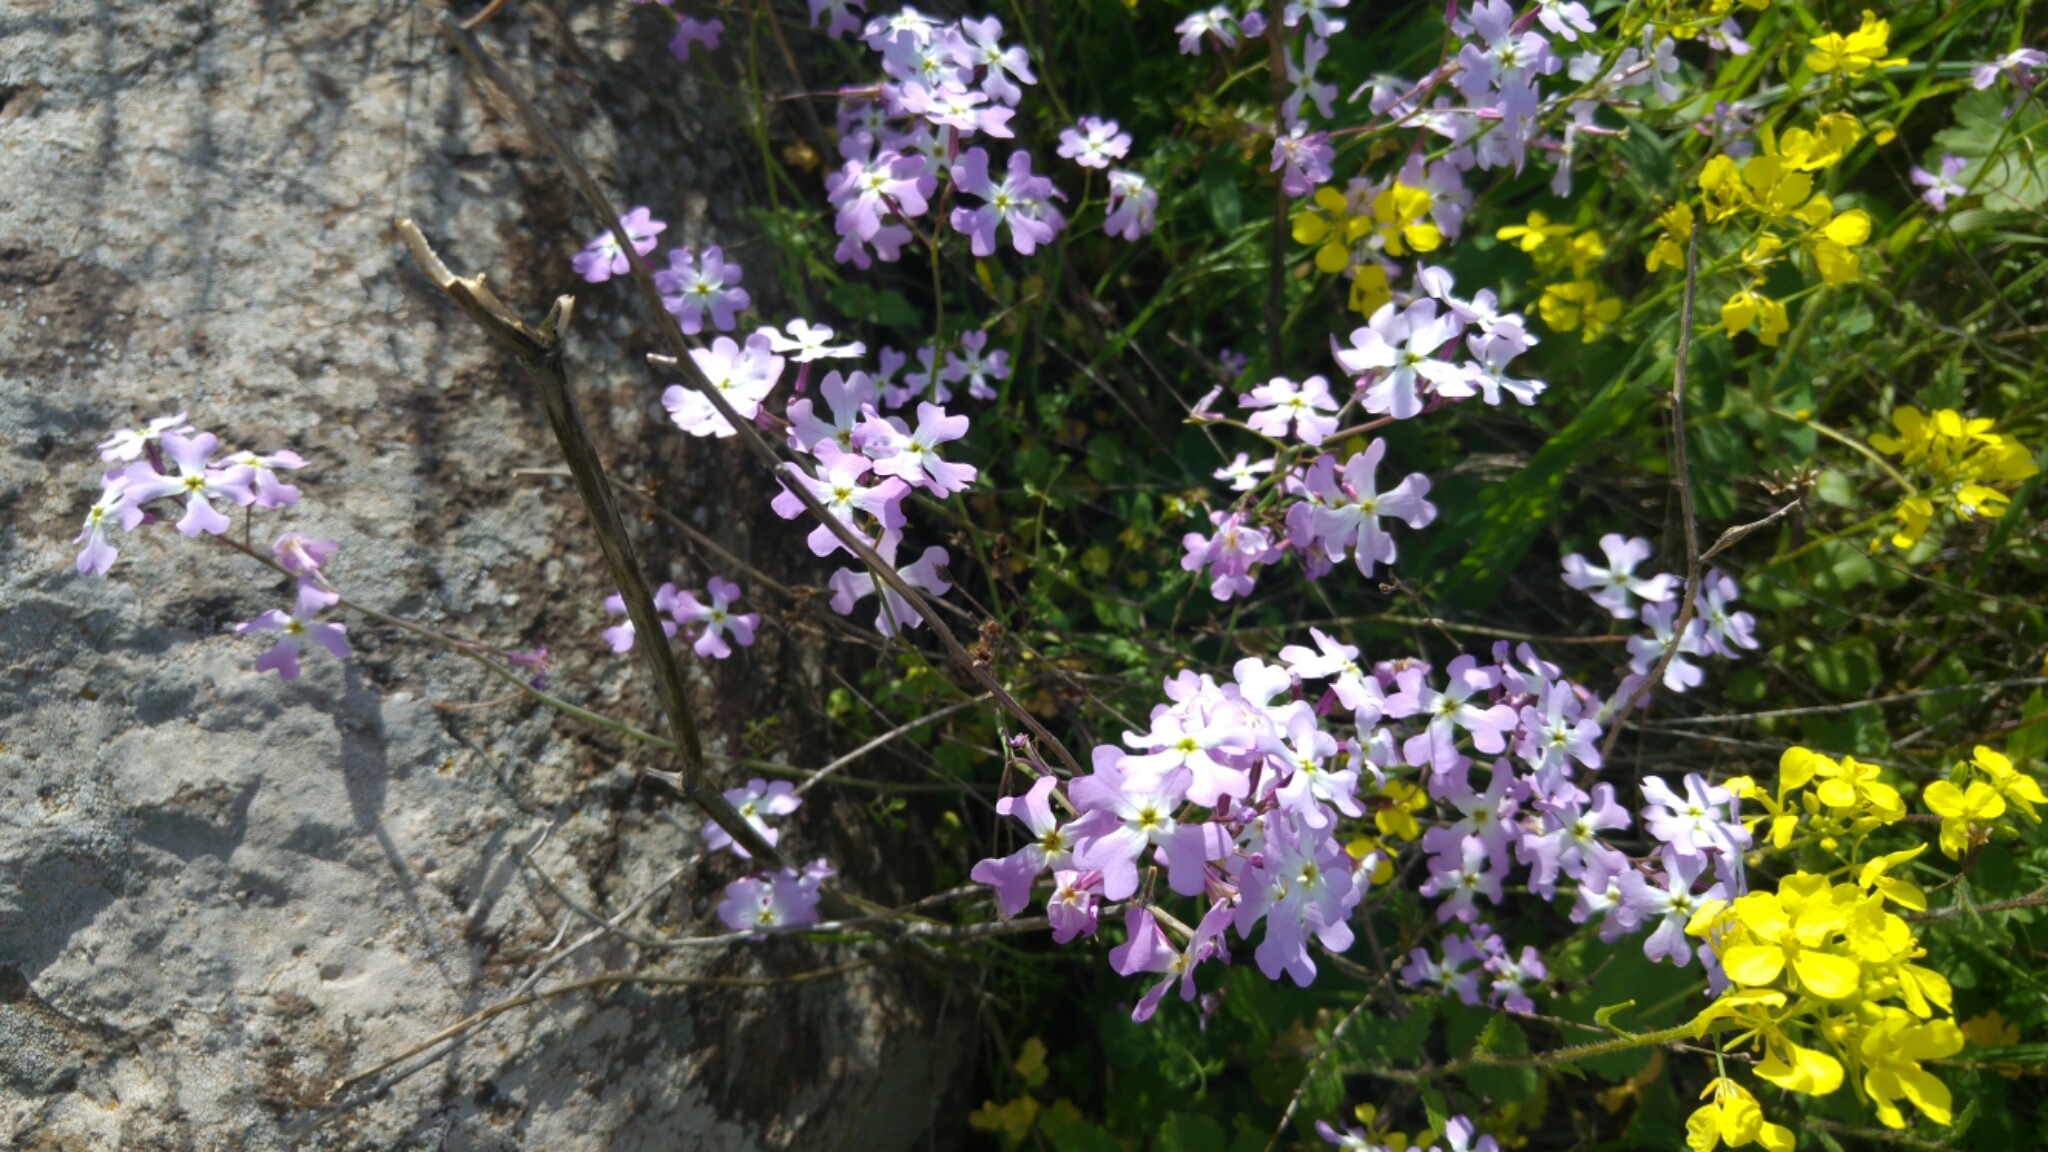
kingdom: Plantae
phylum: Tracheophyta
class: Magnoliopsida
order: Brassicales
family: Brassicaceae
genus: Ricotia
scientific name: Ricotia lunaria
